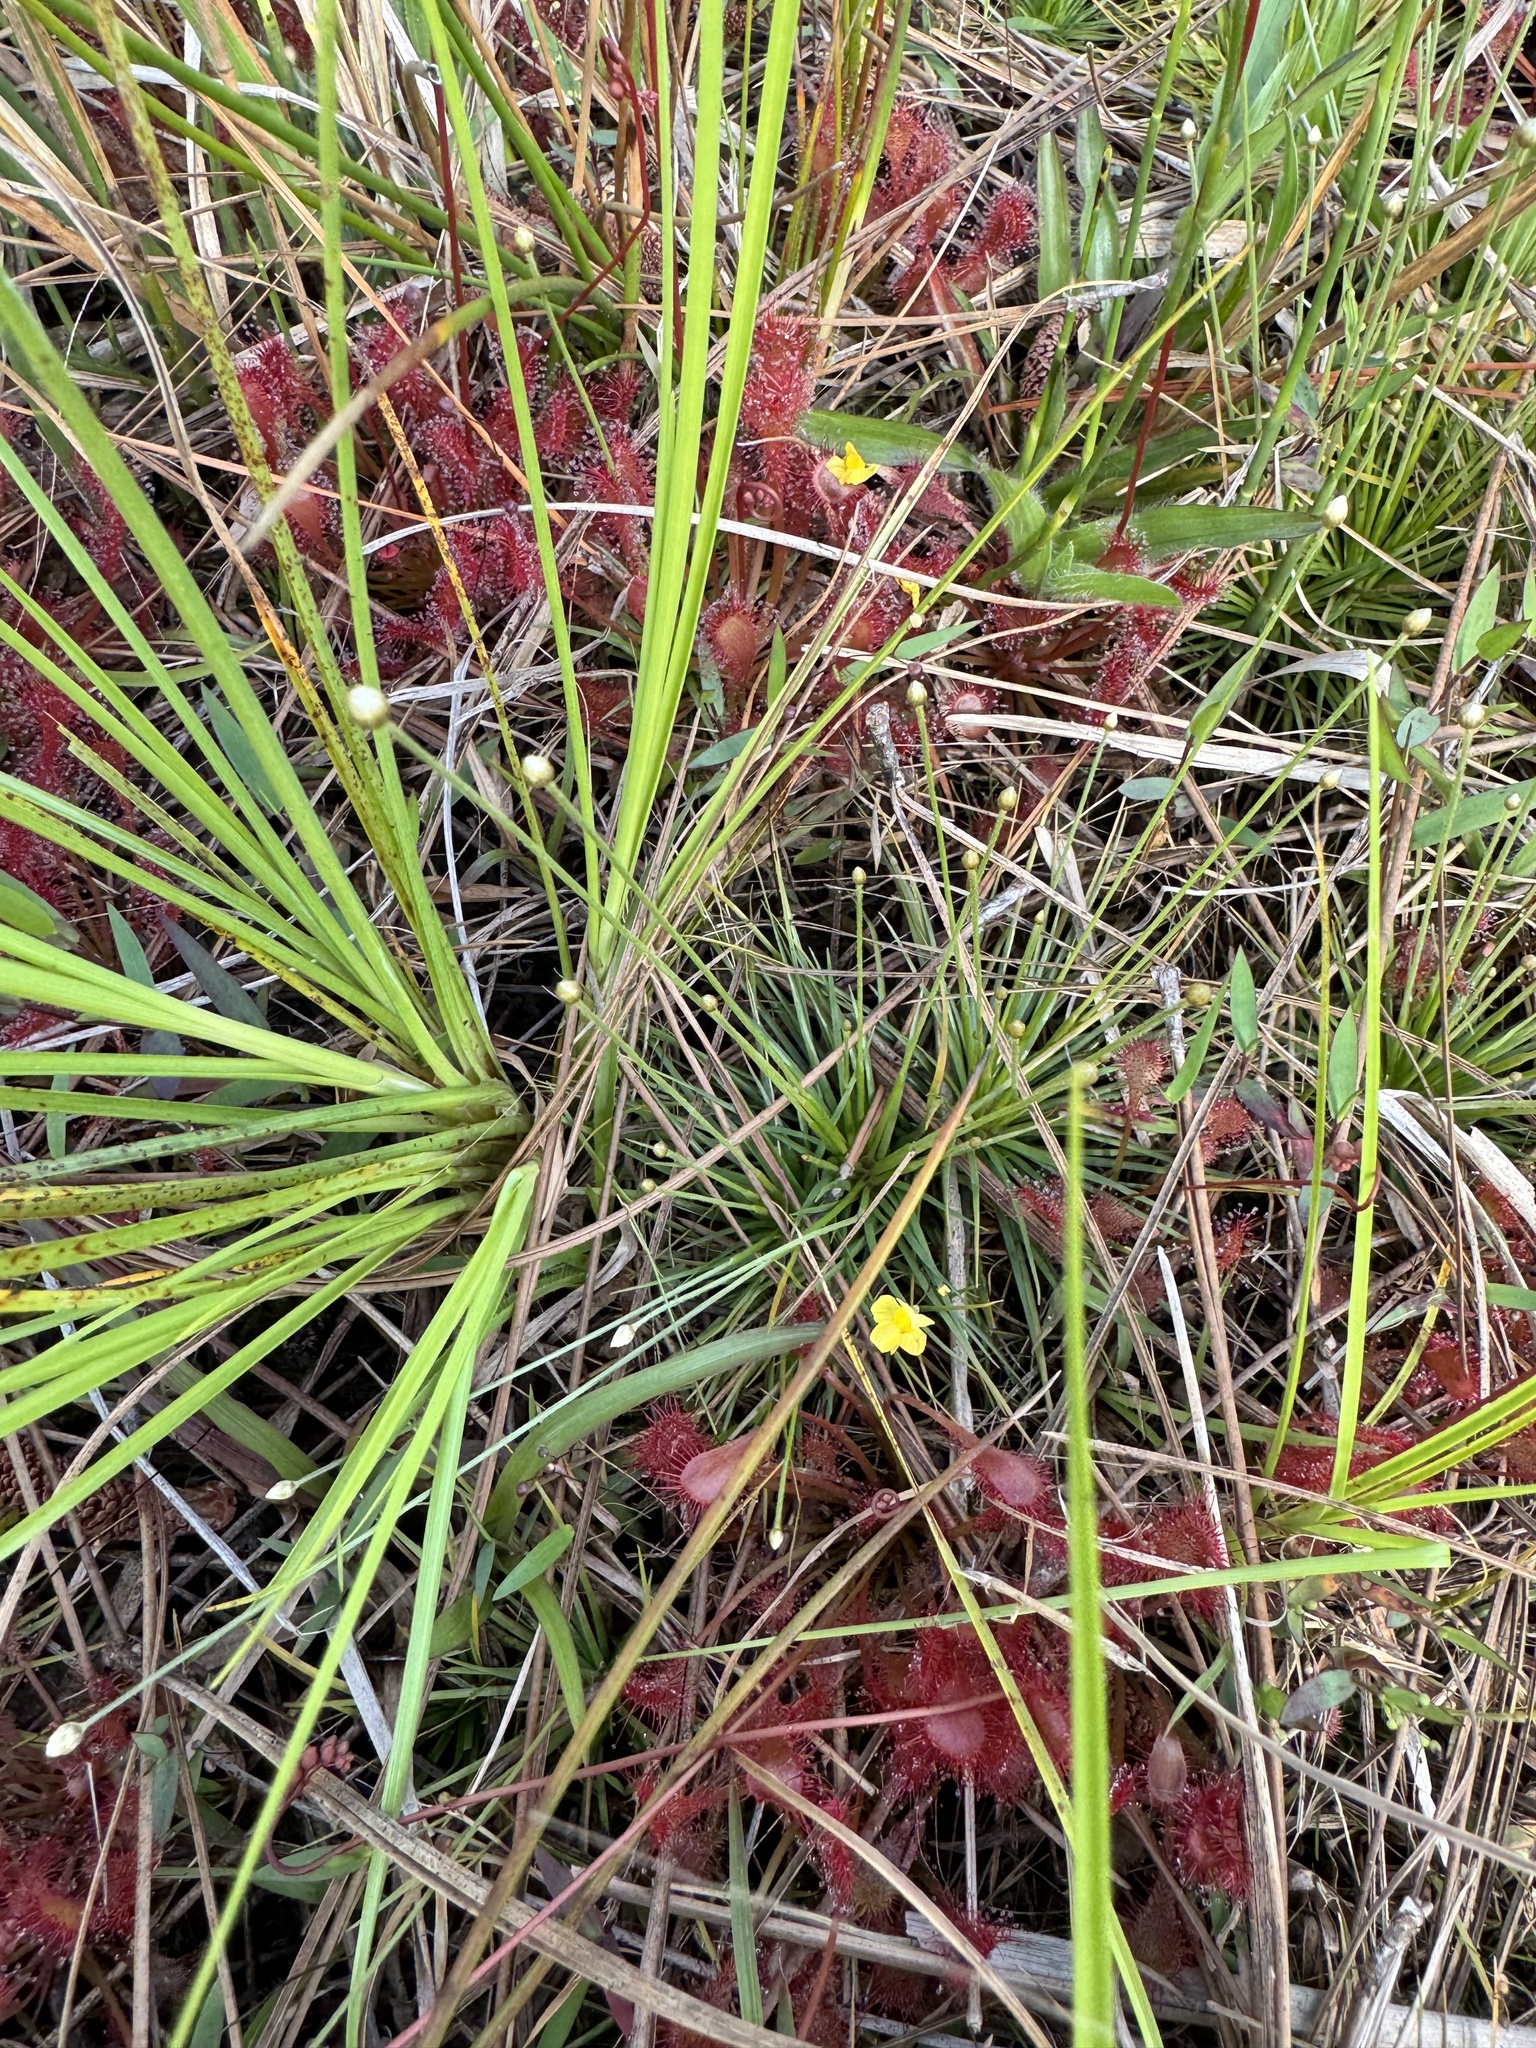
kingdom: Plantae
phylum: Tracheophyta
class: Magnoliopsida
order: Lamiales
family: Lentibulariaceae
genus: Utricularia
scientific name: Utricularia subulata
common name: Tiny bladderwort
